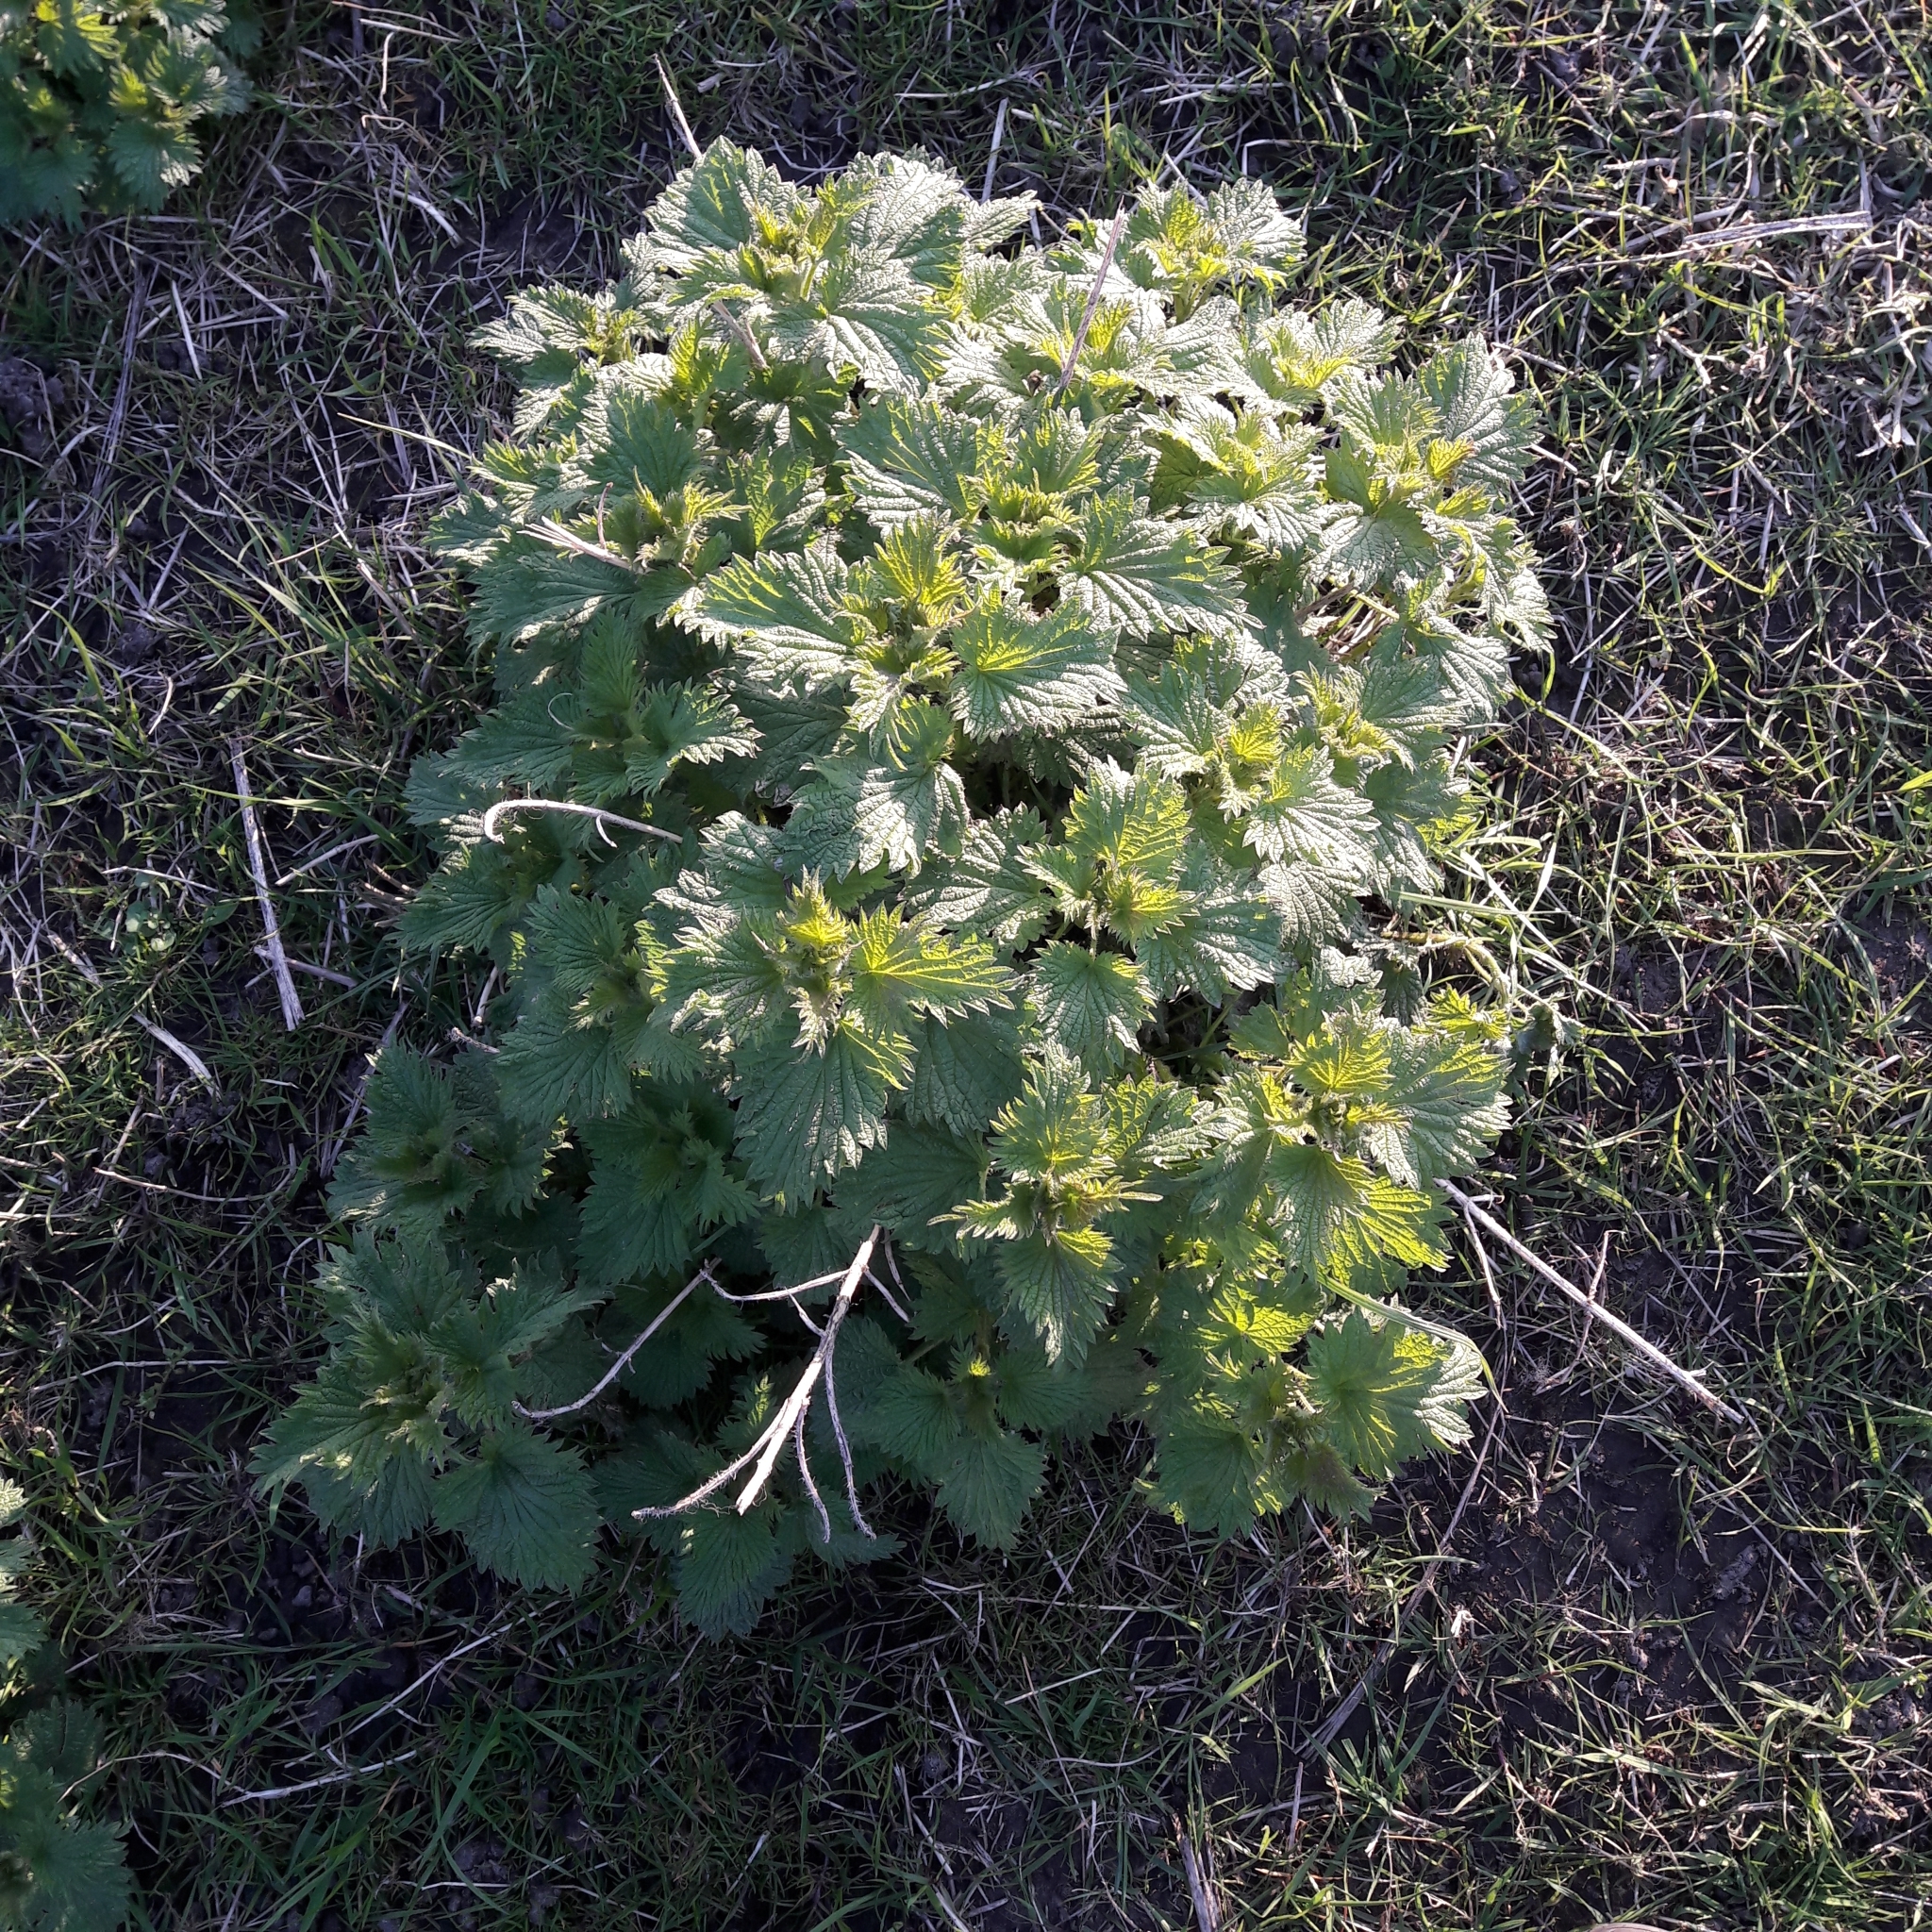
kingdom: Plantae
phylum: Tracheophyta
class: Magnoliopsida
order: Rosales
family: Urticaceae
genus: Urtica
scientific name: Urtica dioica
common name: Common nettle
